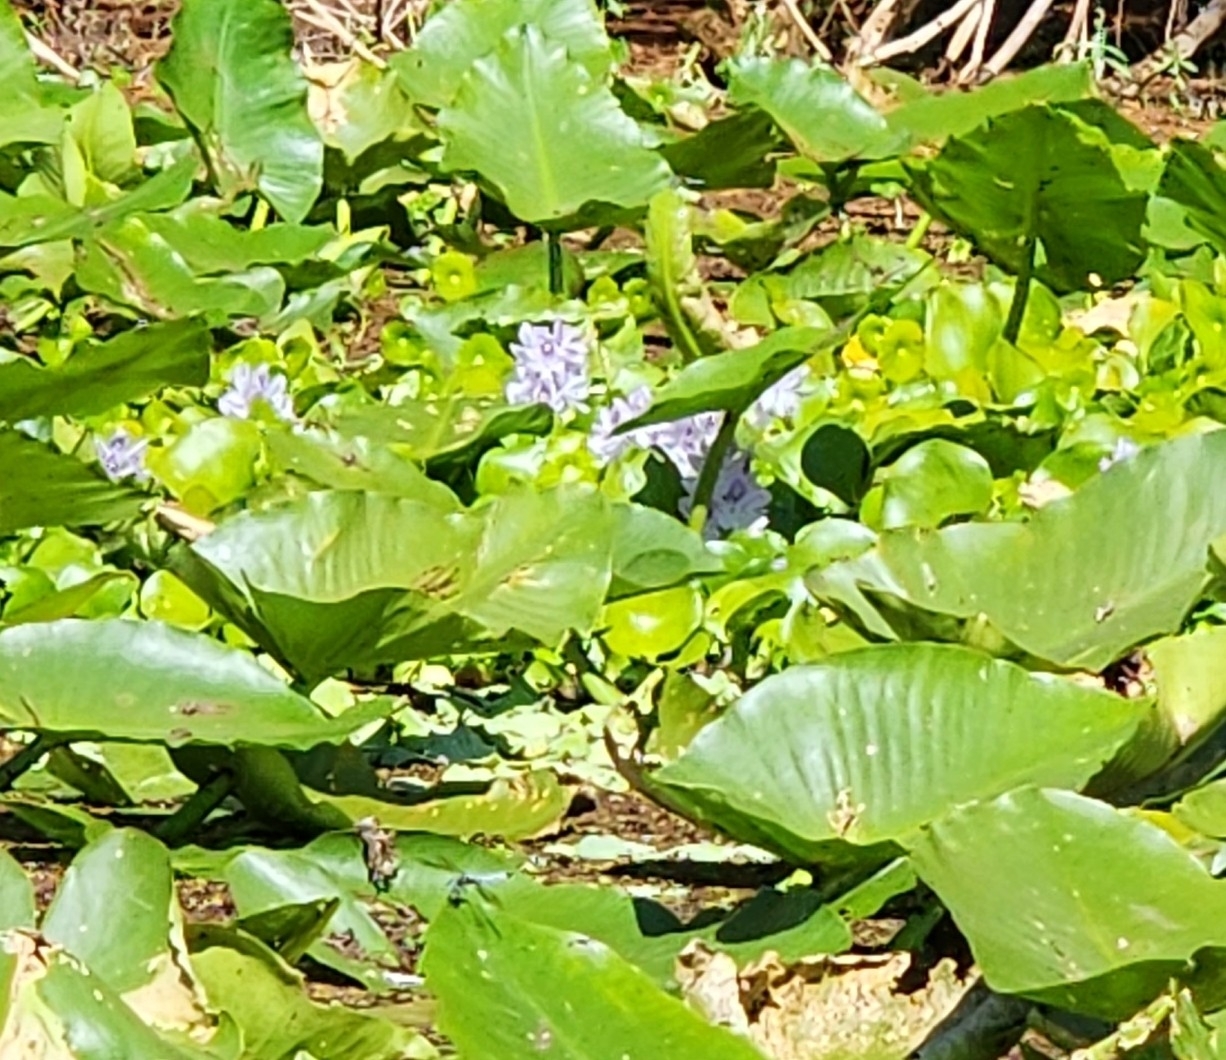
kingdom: Plantae
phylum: Tracheophyta
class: Liliopsida
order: Commelinales
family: Pontederiaceae
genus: Pontederia
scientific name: Pontederia crassipes
